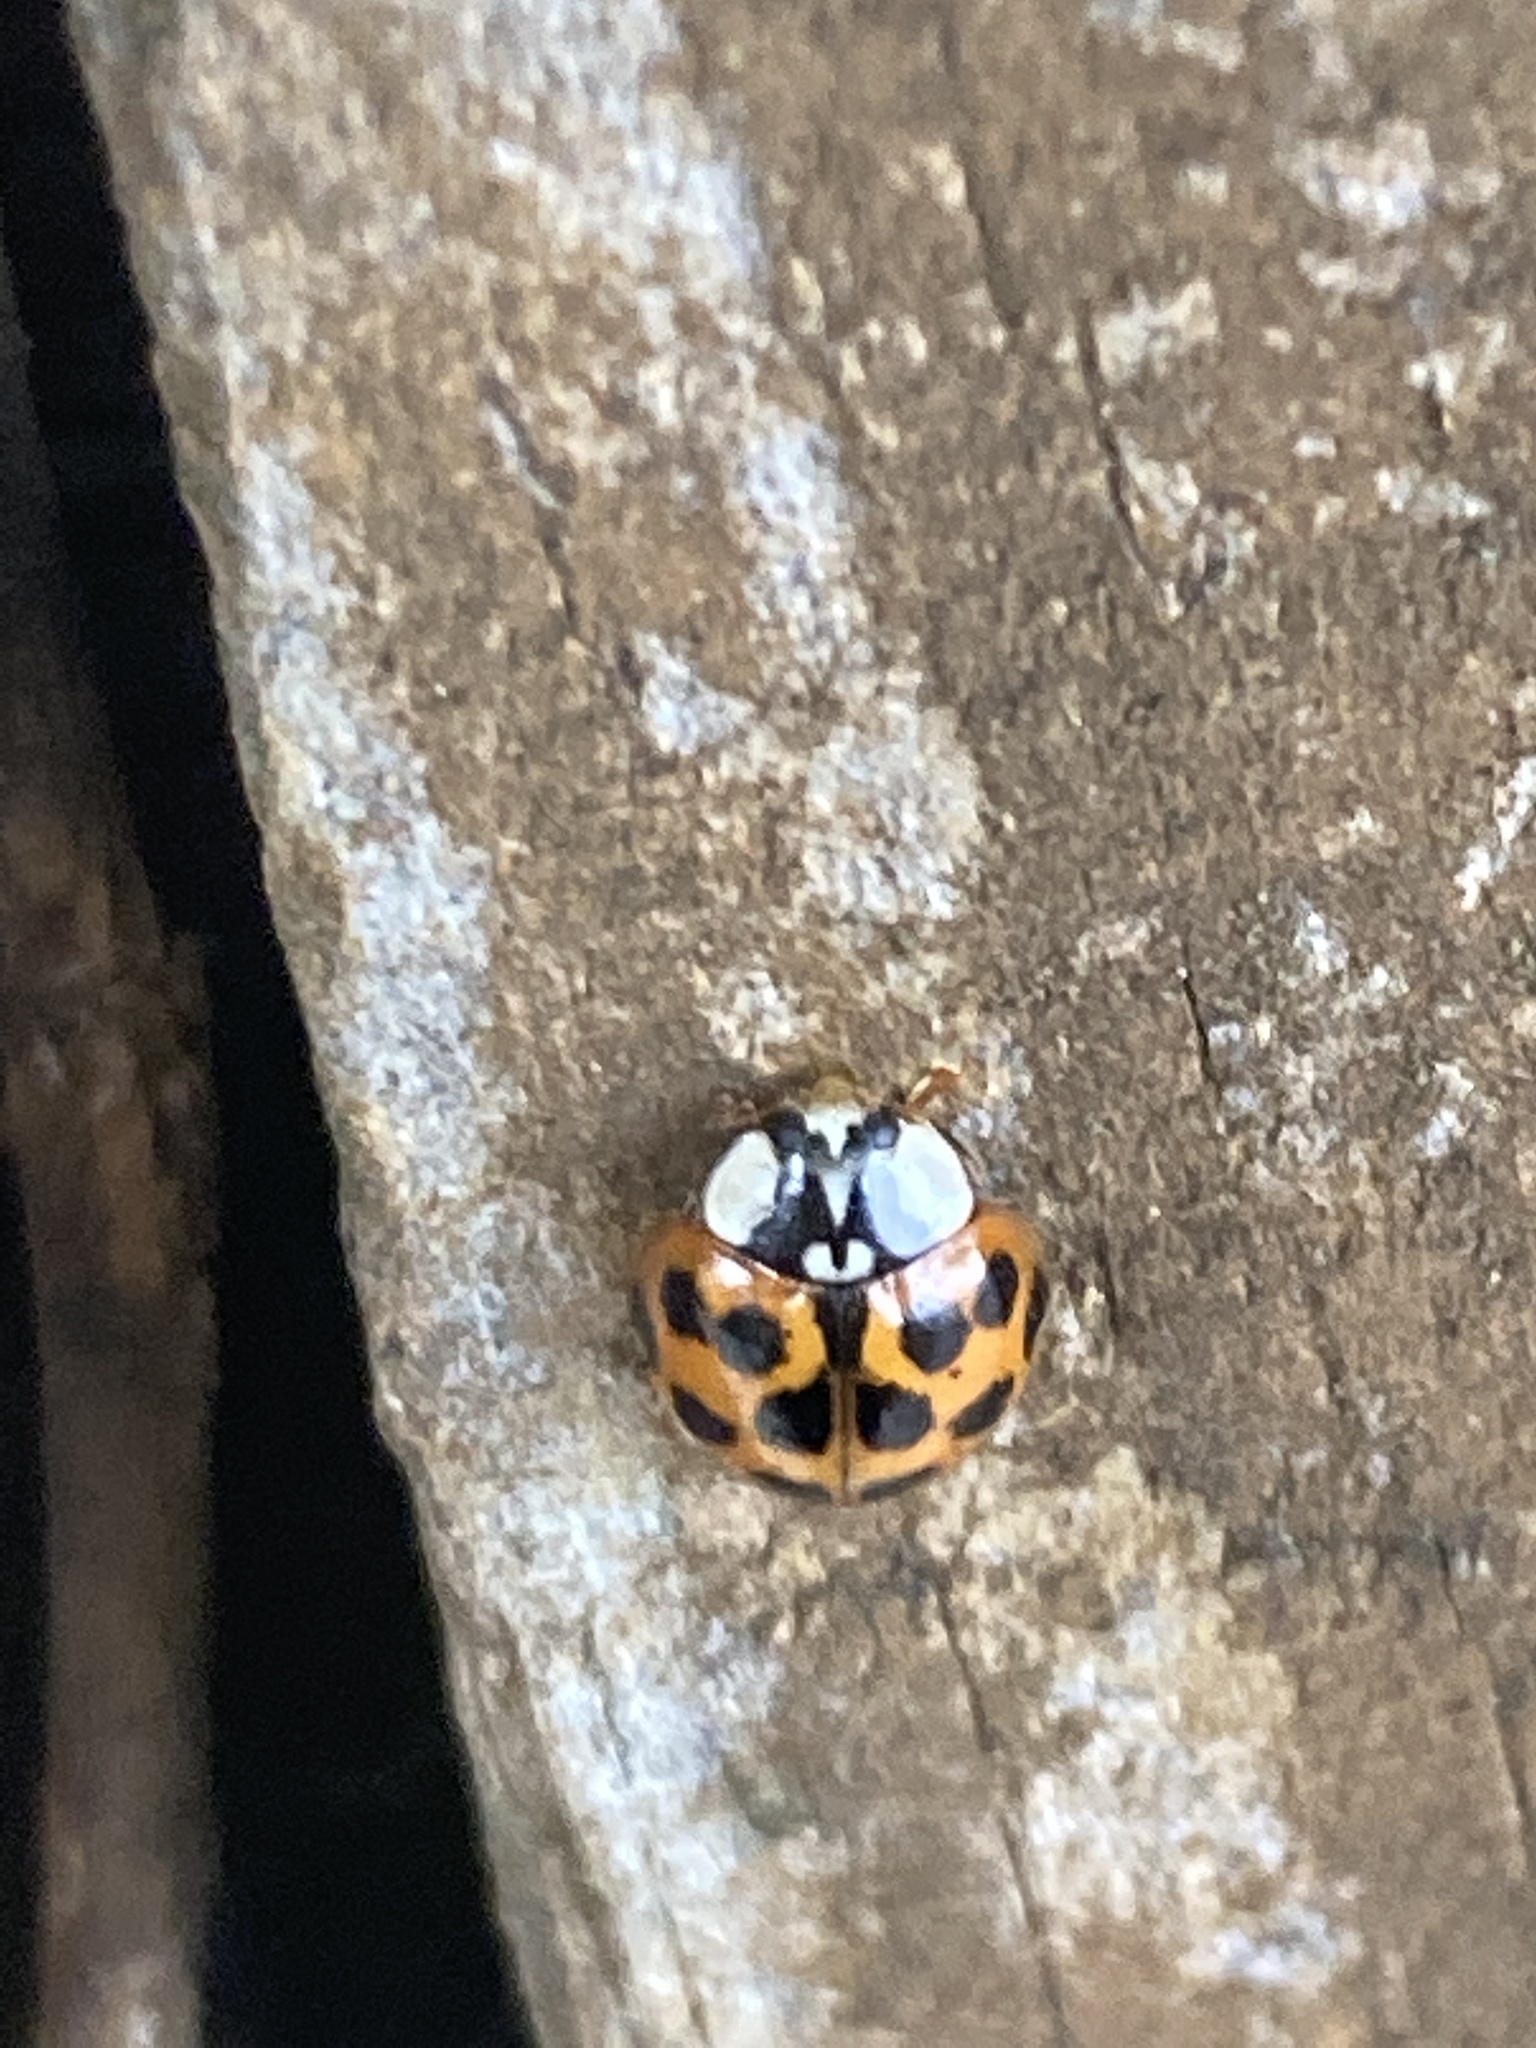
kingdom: Animalia
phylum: Arthropoda
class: Insecta
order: Coleoptera
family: Coccinellidae
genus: Harmonia
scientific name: Harmonia axyridis
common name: Harlequin ladybird
